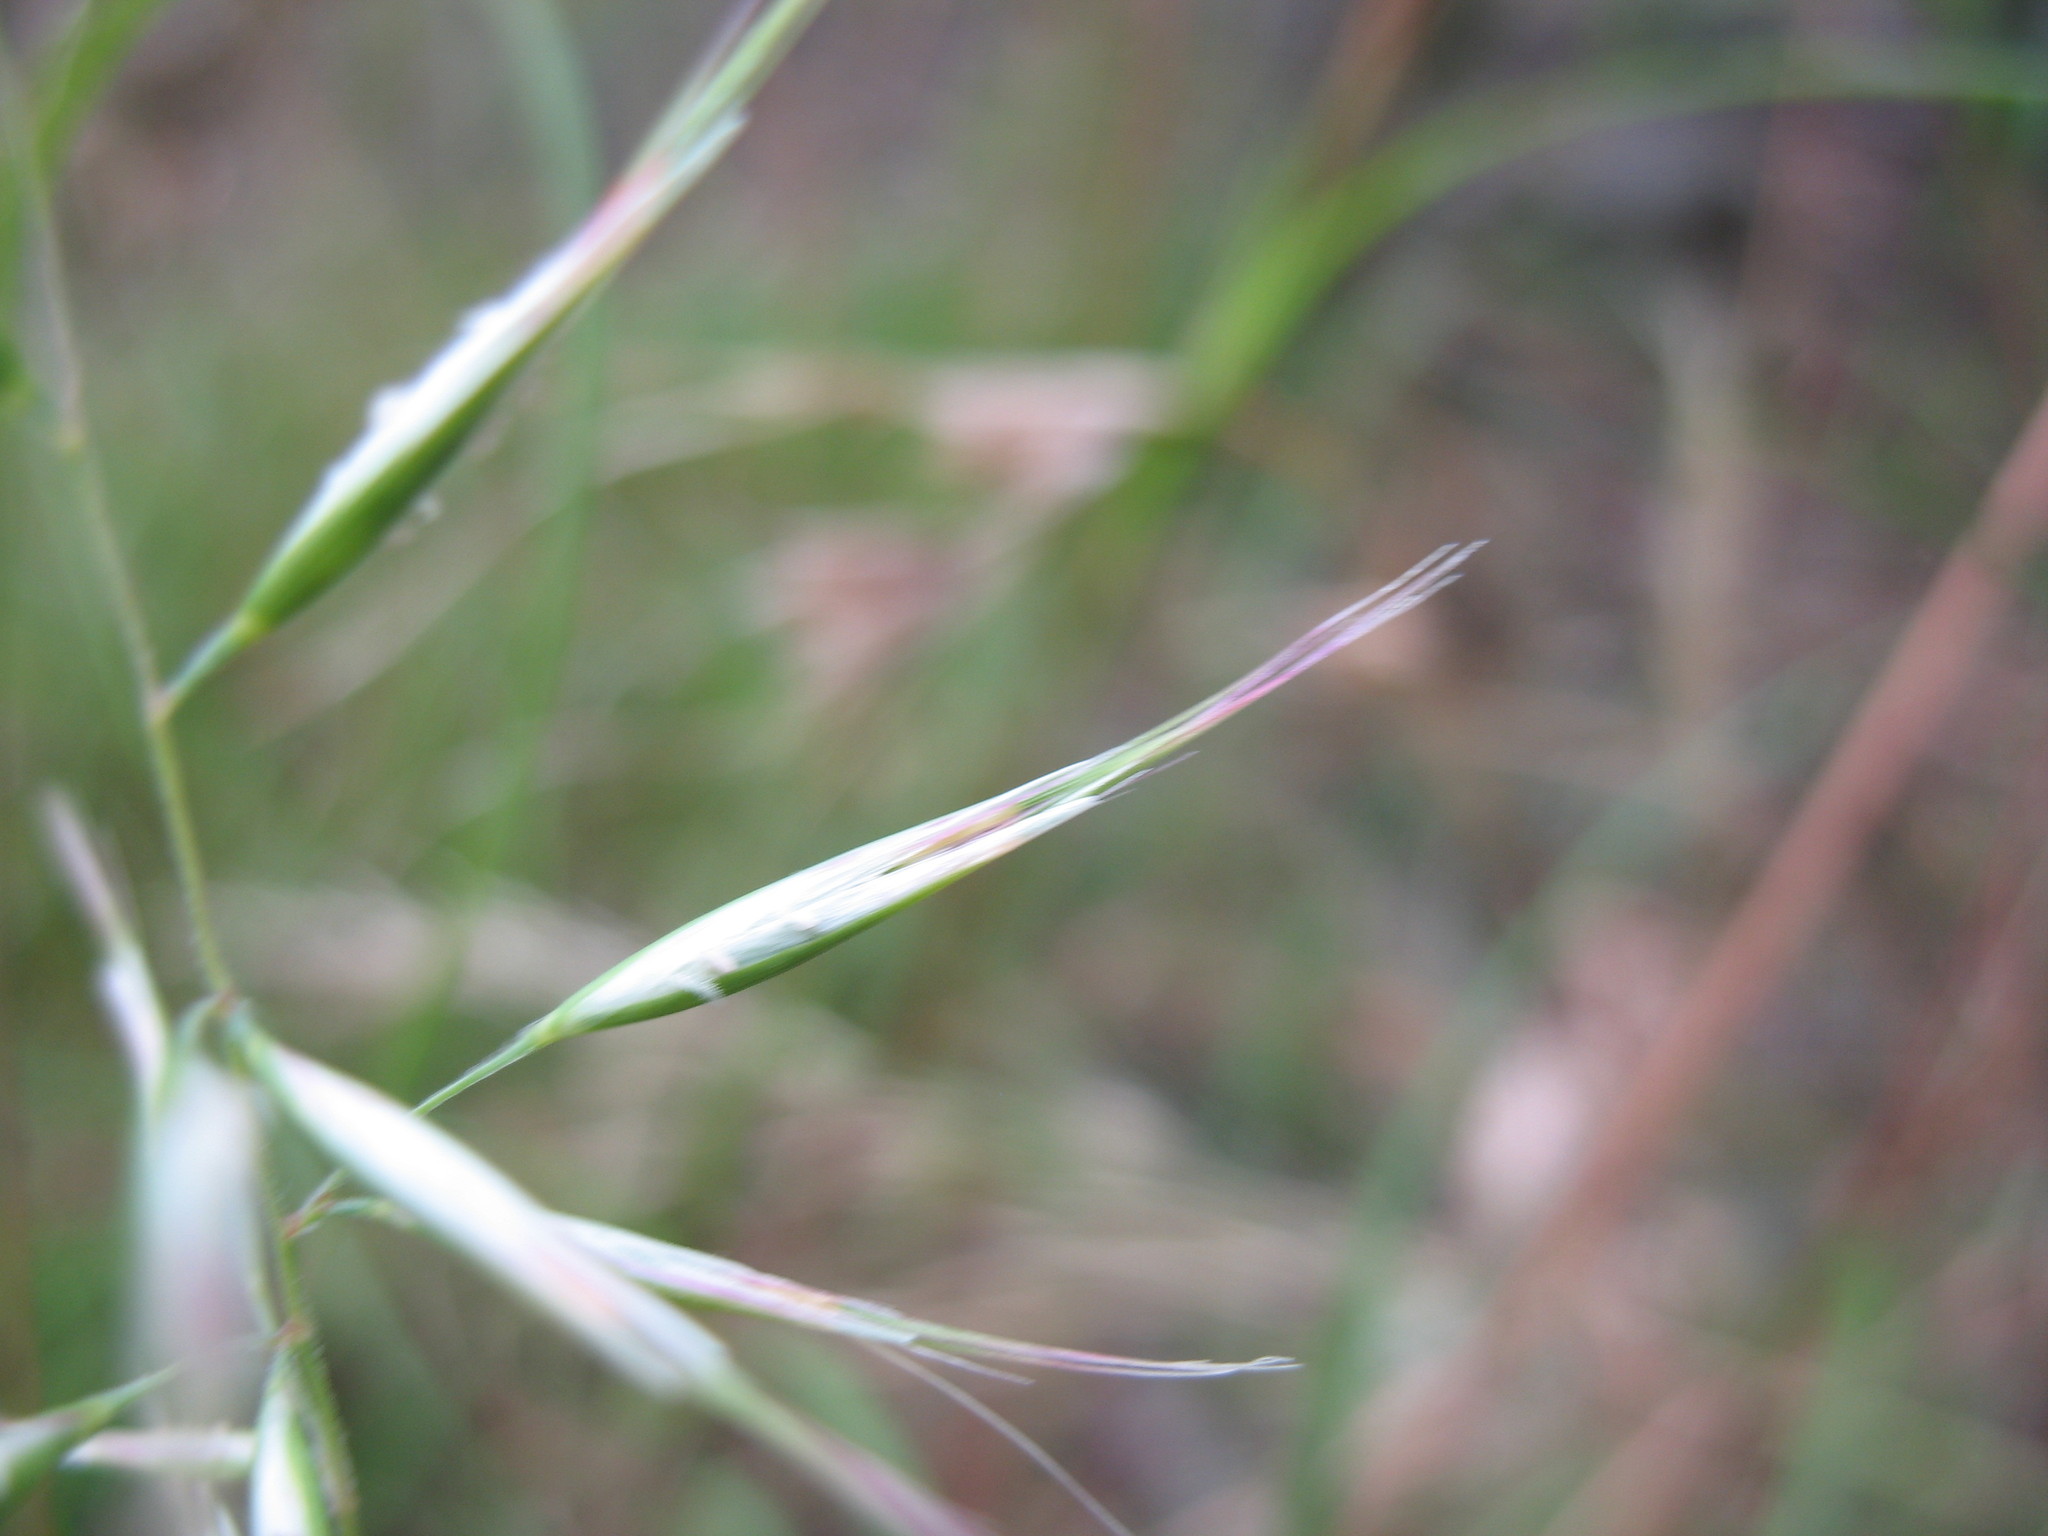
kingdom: Plantae
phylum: Tracheophyta
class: Liliopsida
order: Poales
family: Poaceae
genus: Rytidosperma
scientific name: Rytidosperma setaceum
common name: Small-flower wallaby grass
